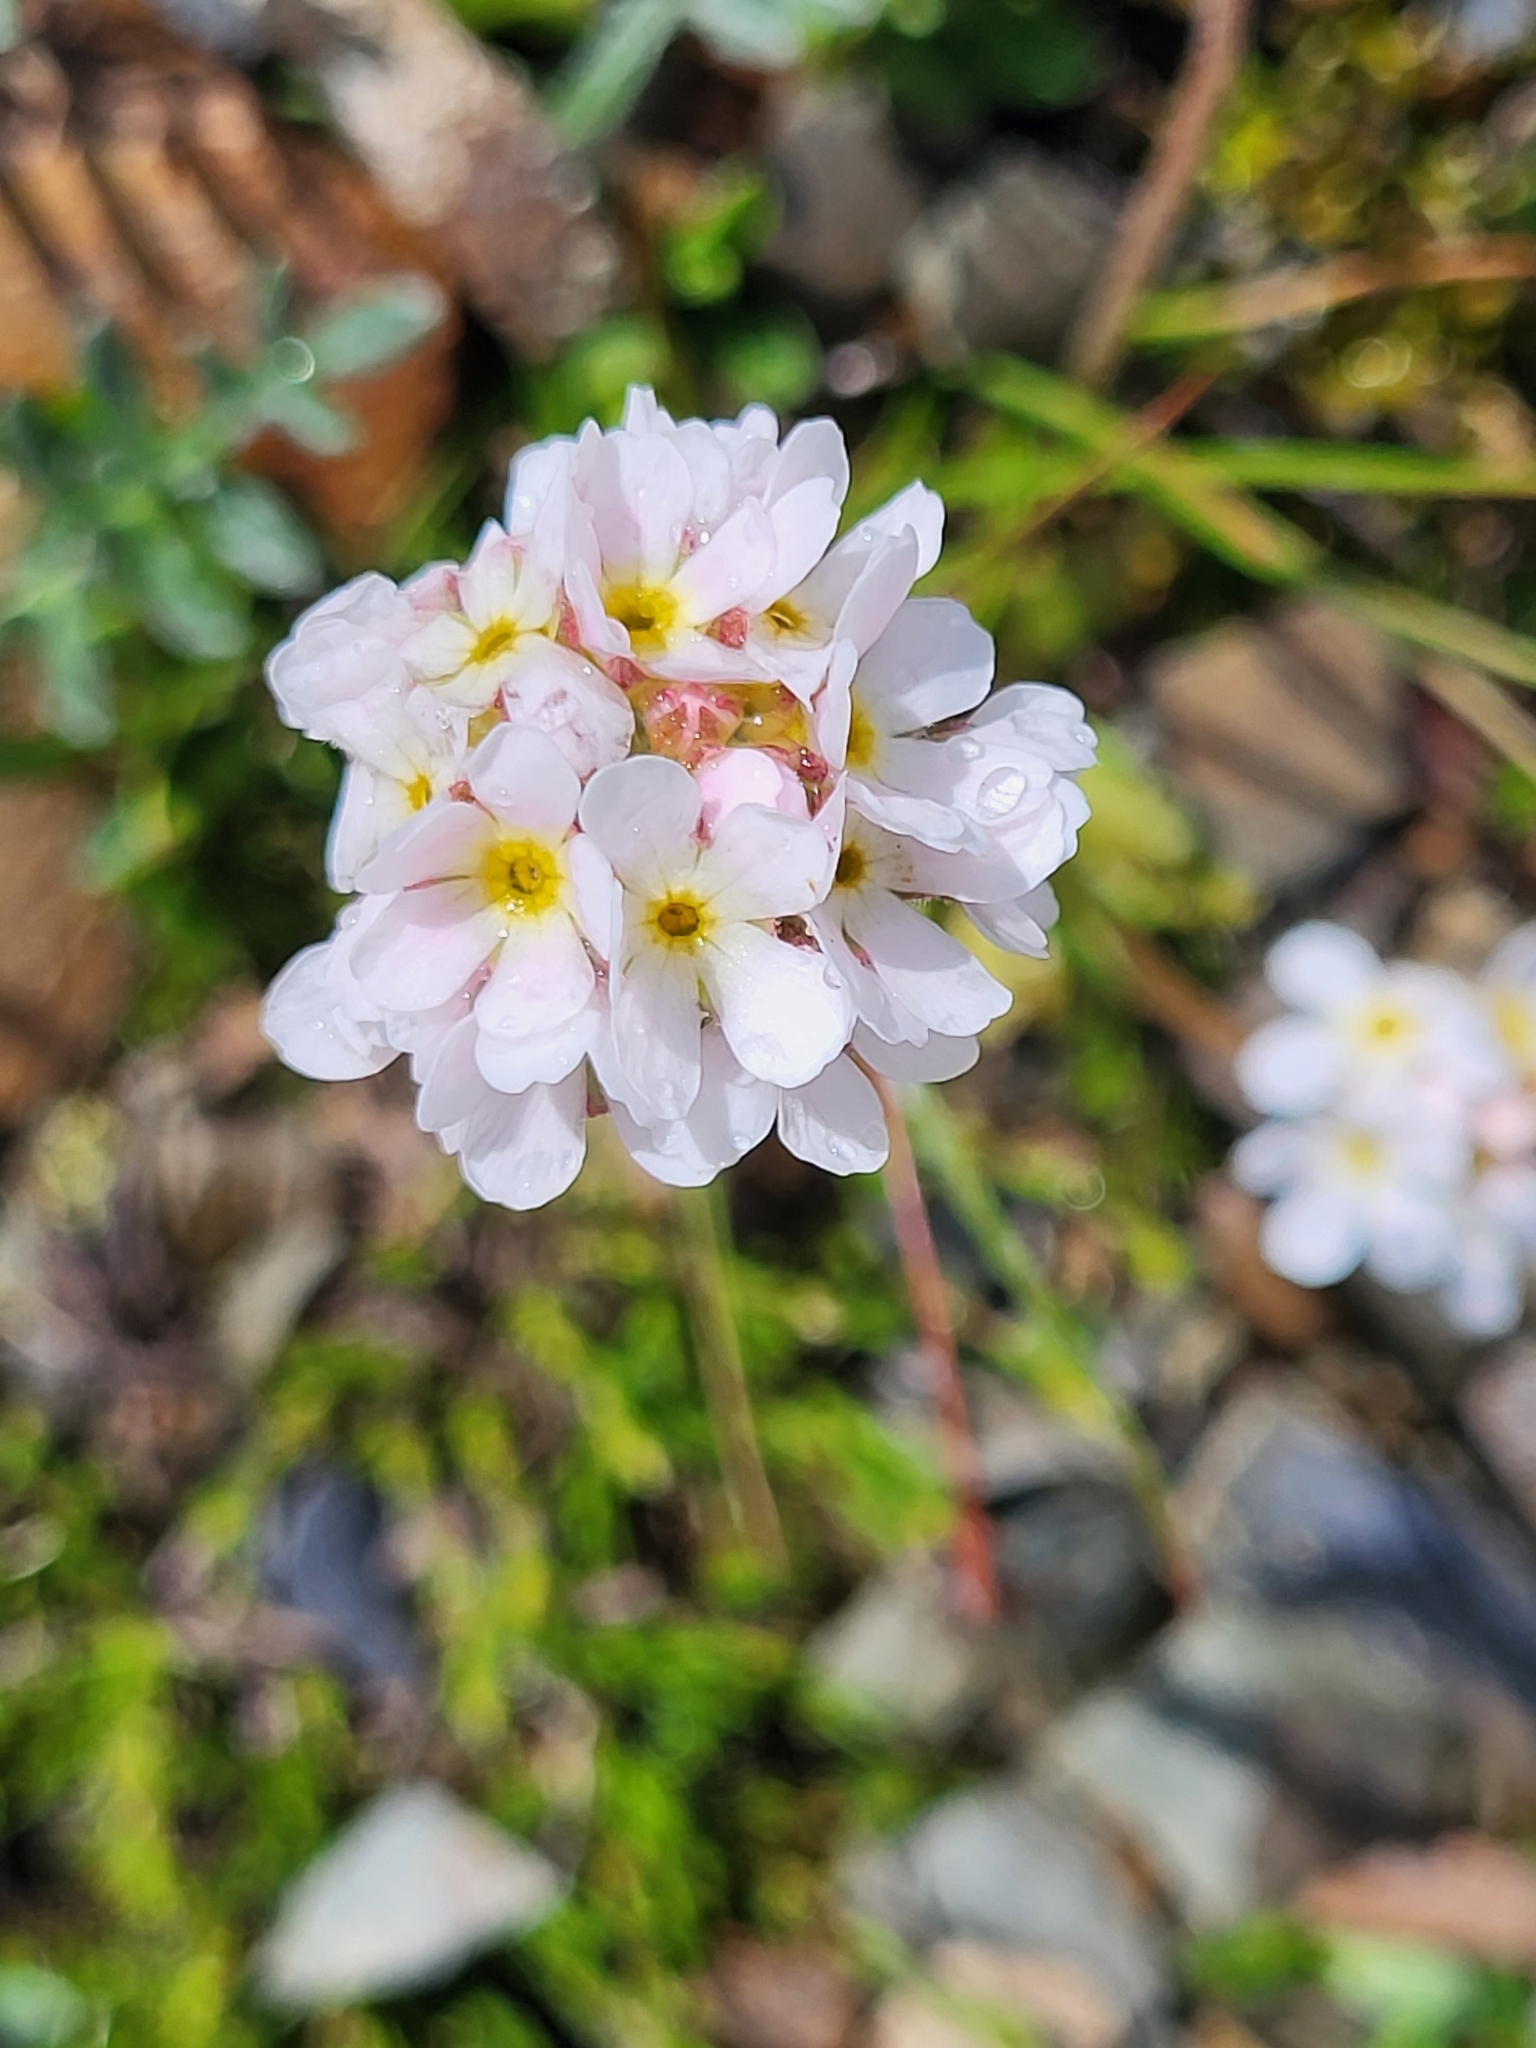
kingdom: Plantae
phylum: Tracheophyta
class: Magnoliopsida
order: Ericales
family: Primulaceae
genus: Androsace
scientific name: Androsace albana
